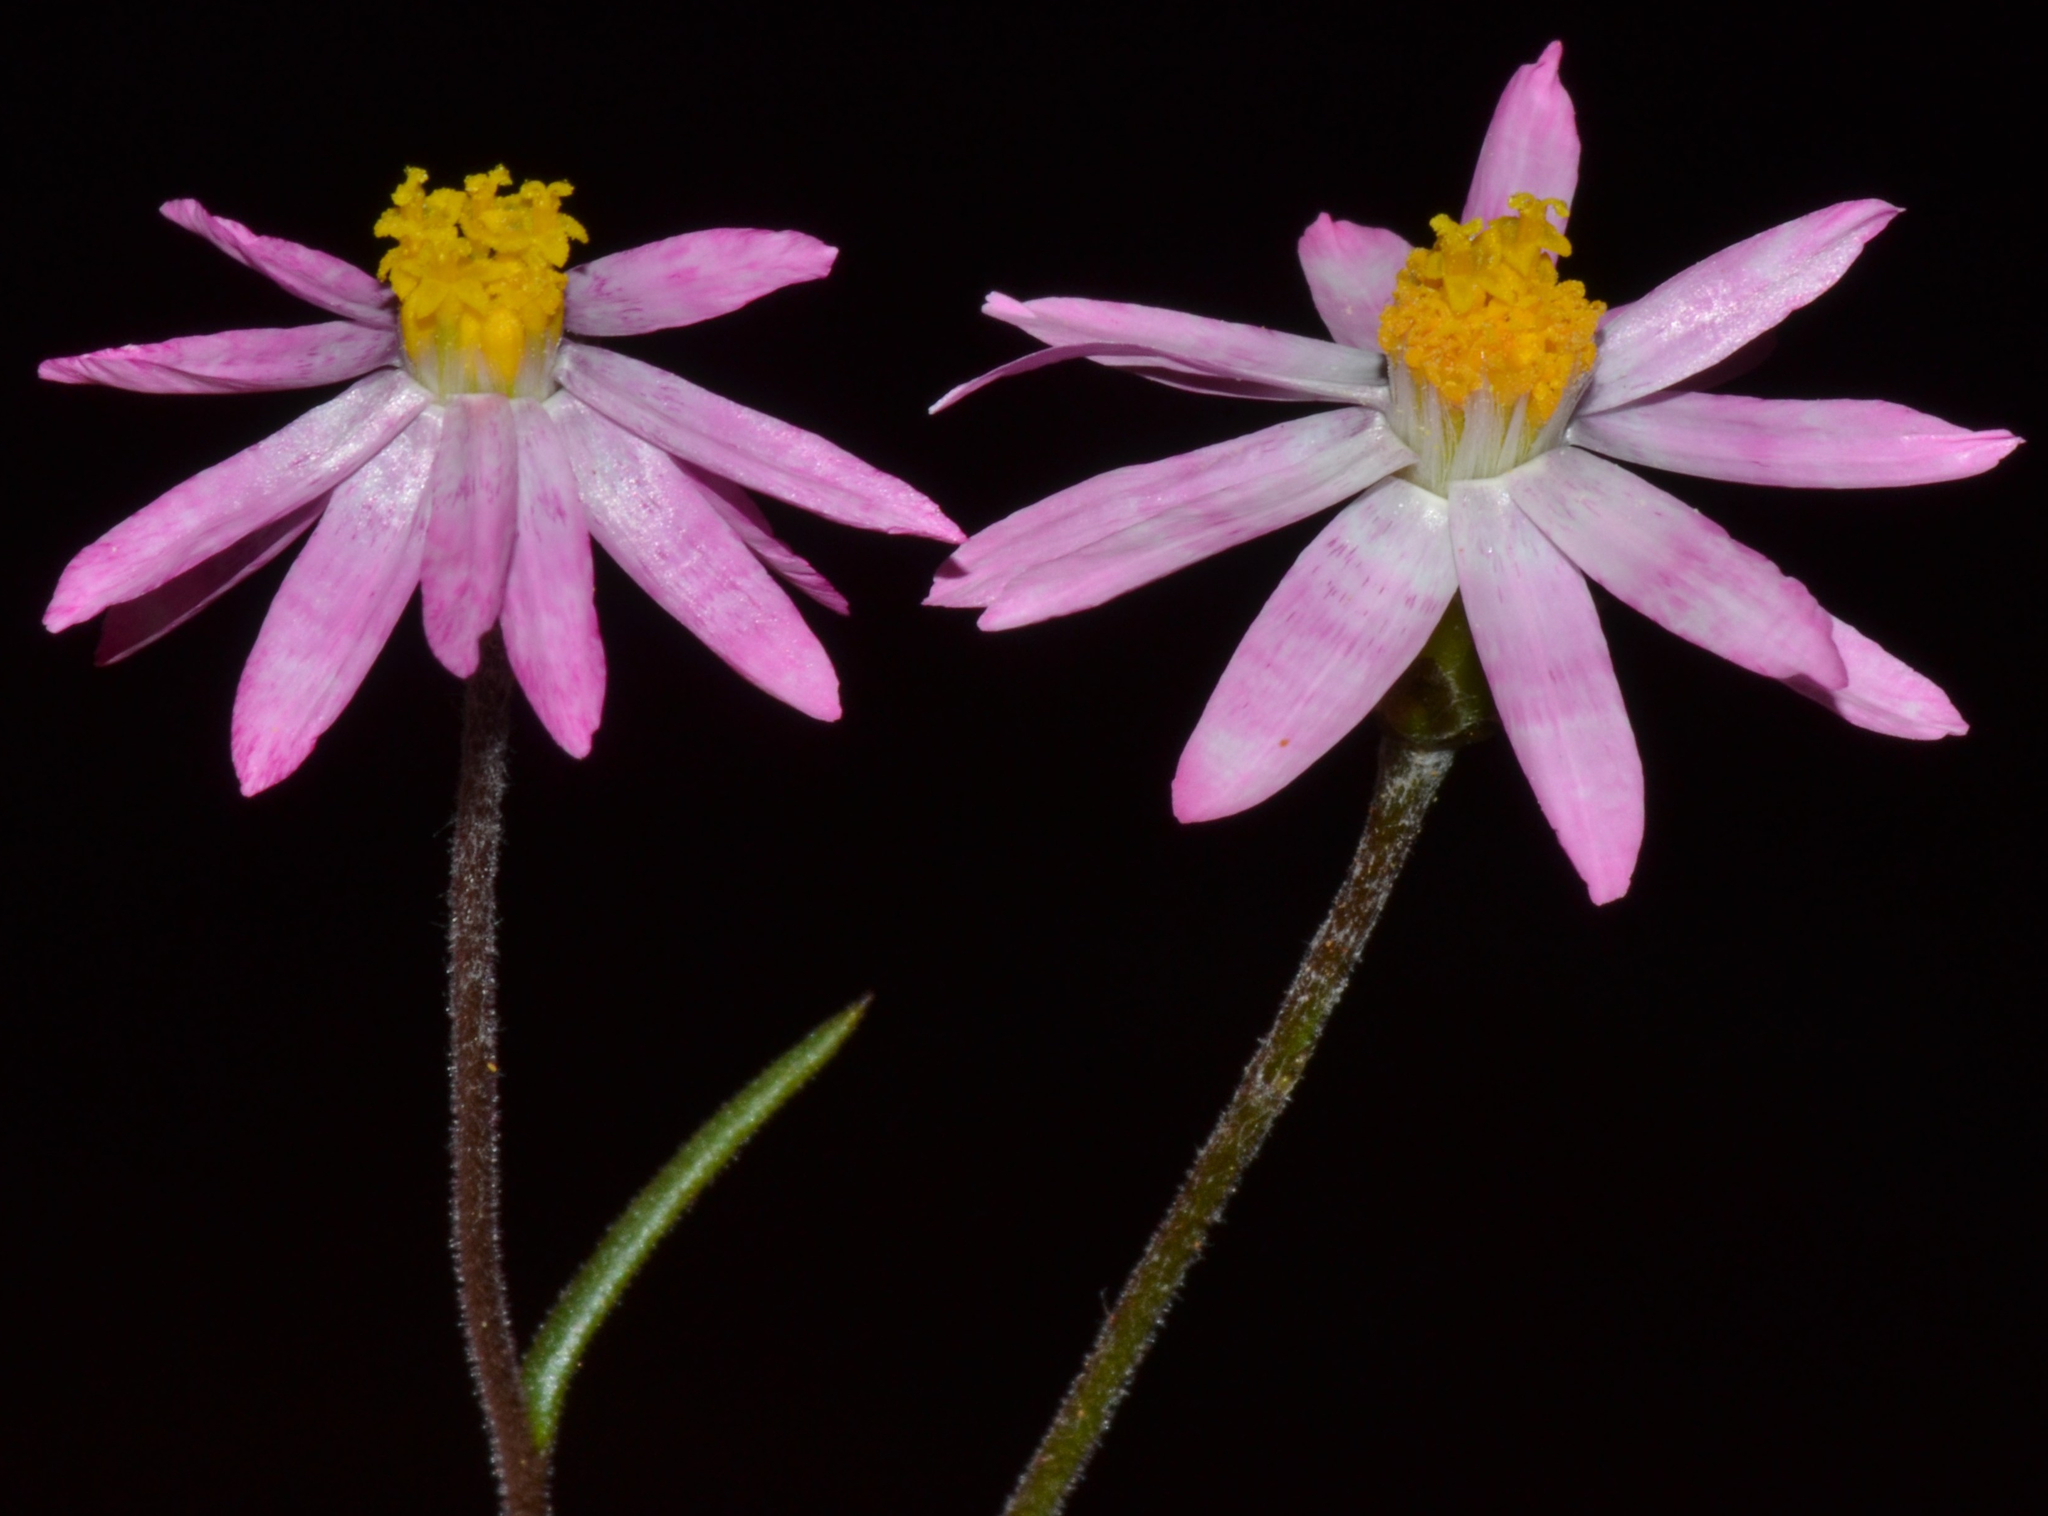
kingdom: Plantae
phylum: Tracheophyta
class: Magnoliopsida
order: Asterales
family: Asteraceae
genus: Lawrencella
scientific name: Lawrencella rosea
